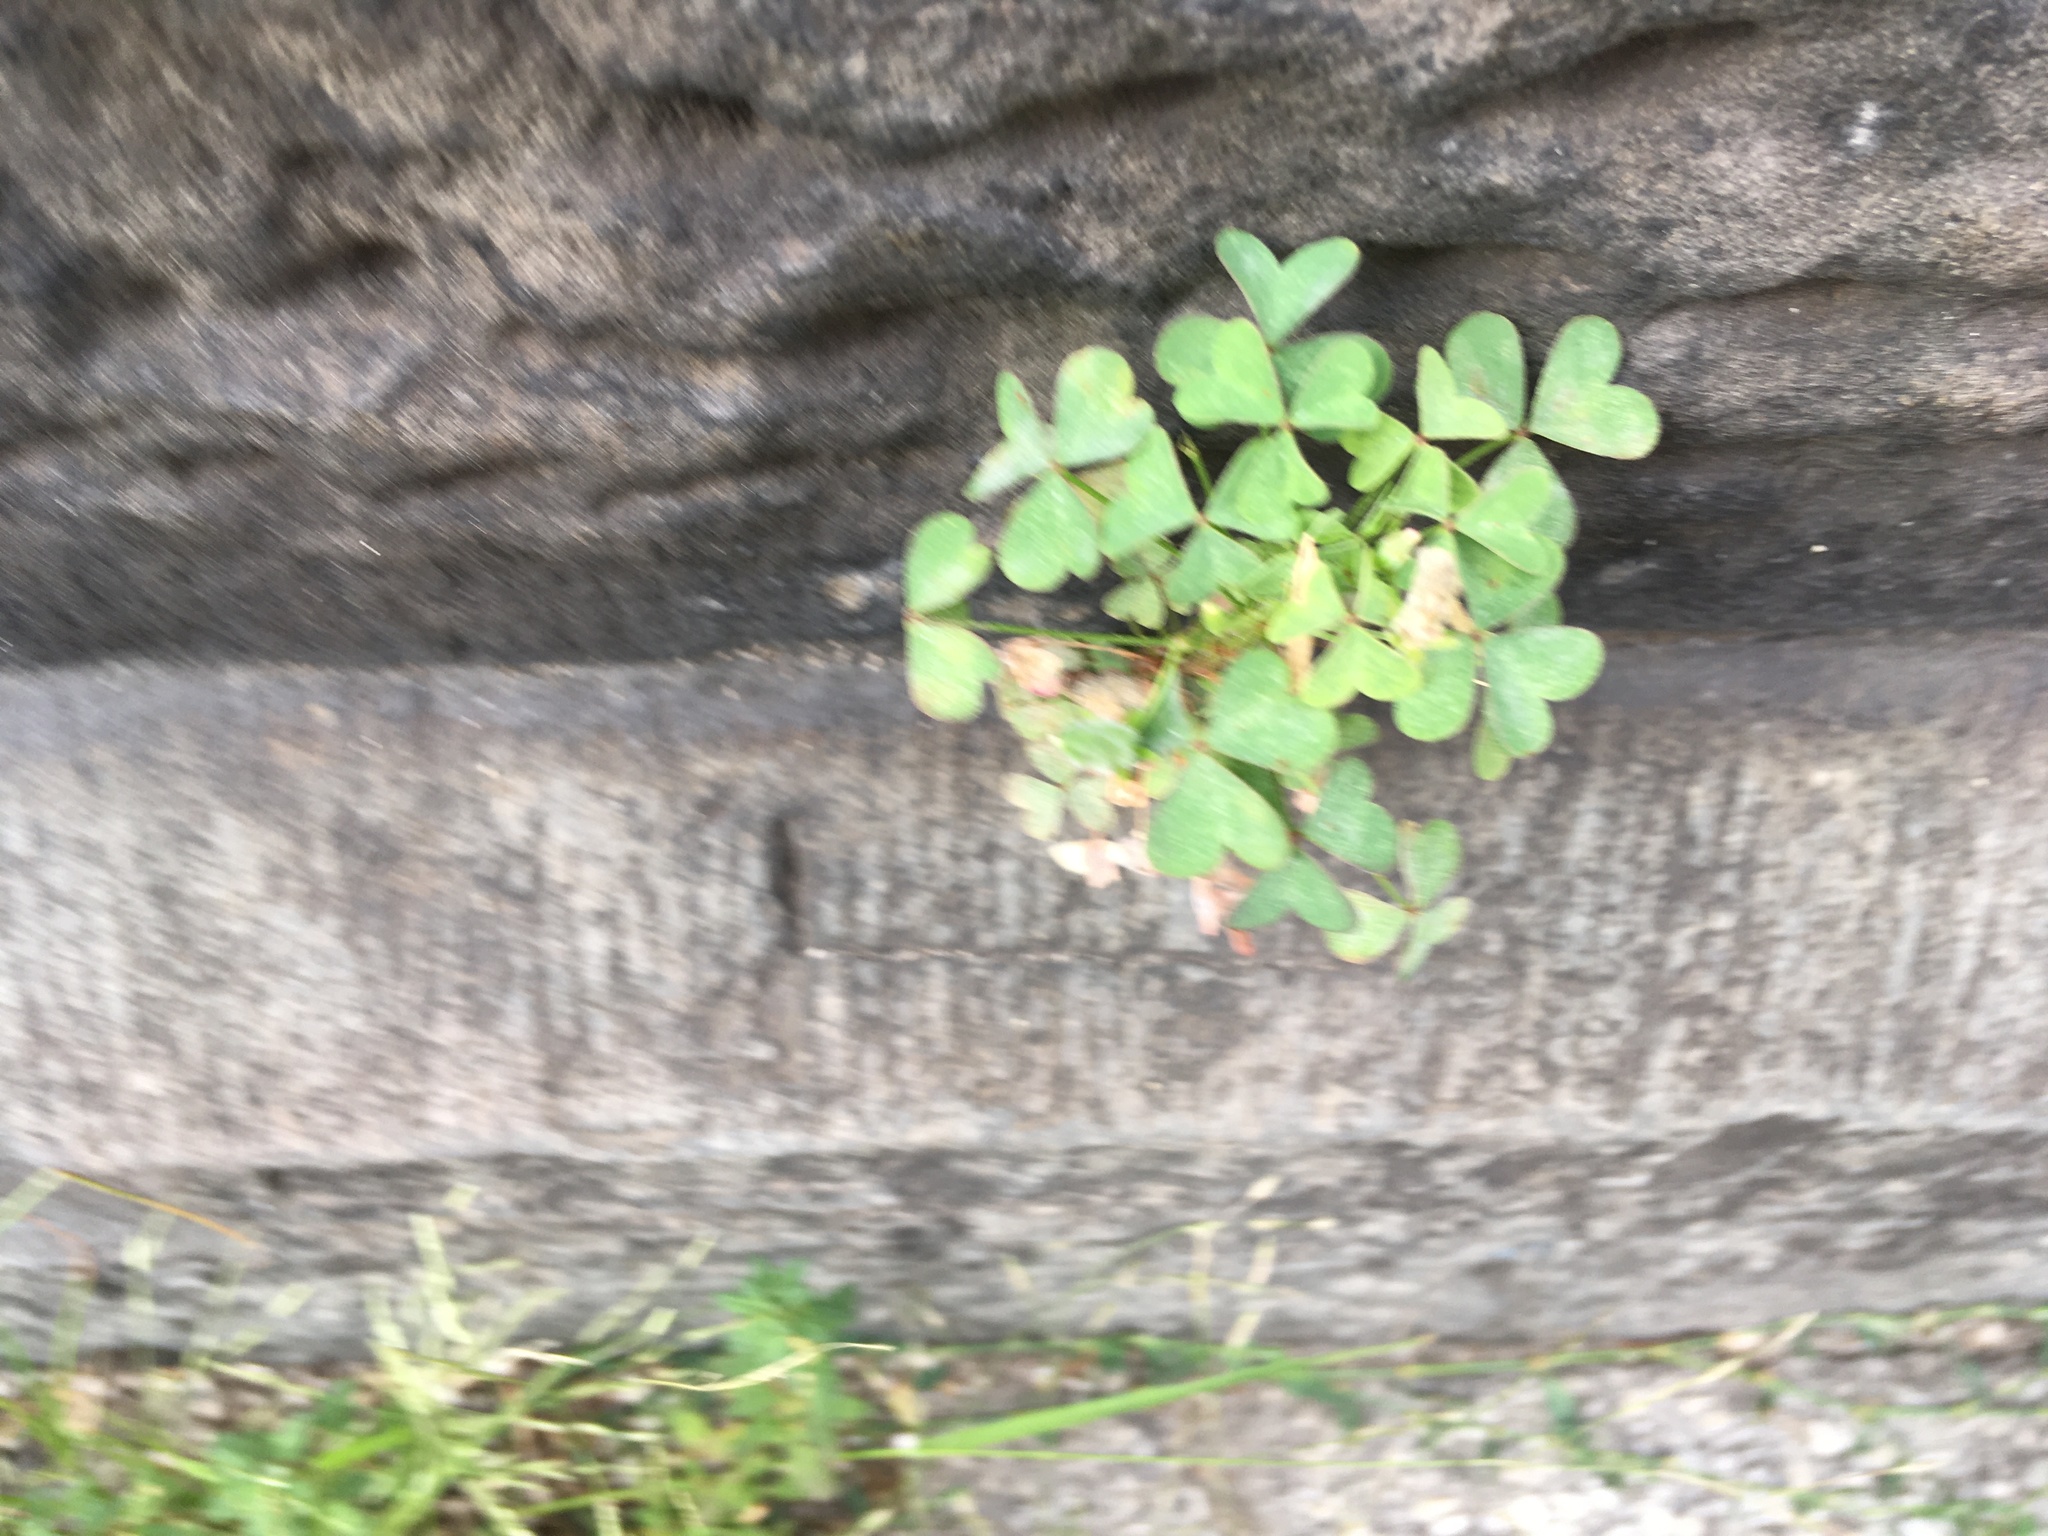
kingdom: Plantae
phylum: Tracheophyta
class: Magnoliopsida
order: Oxalidales
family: Oxalidaceae
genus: Oxalis
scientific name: Oxalis corniculata
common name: Procumbent yellow-sorrel
